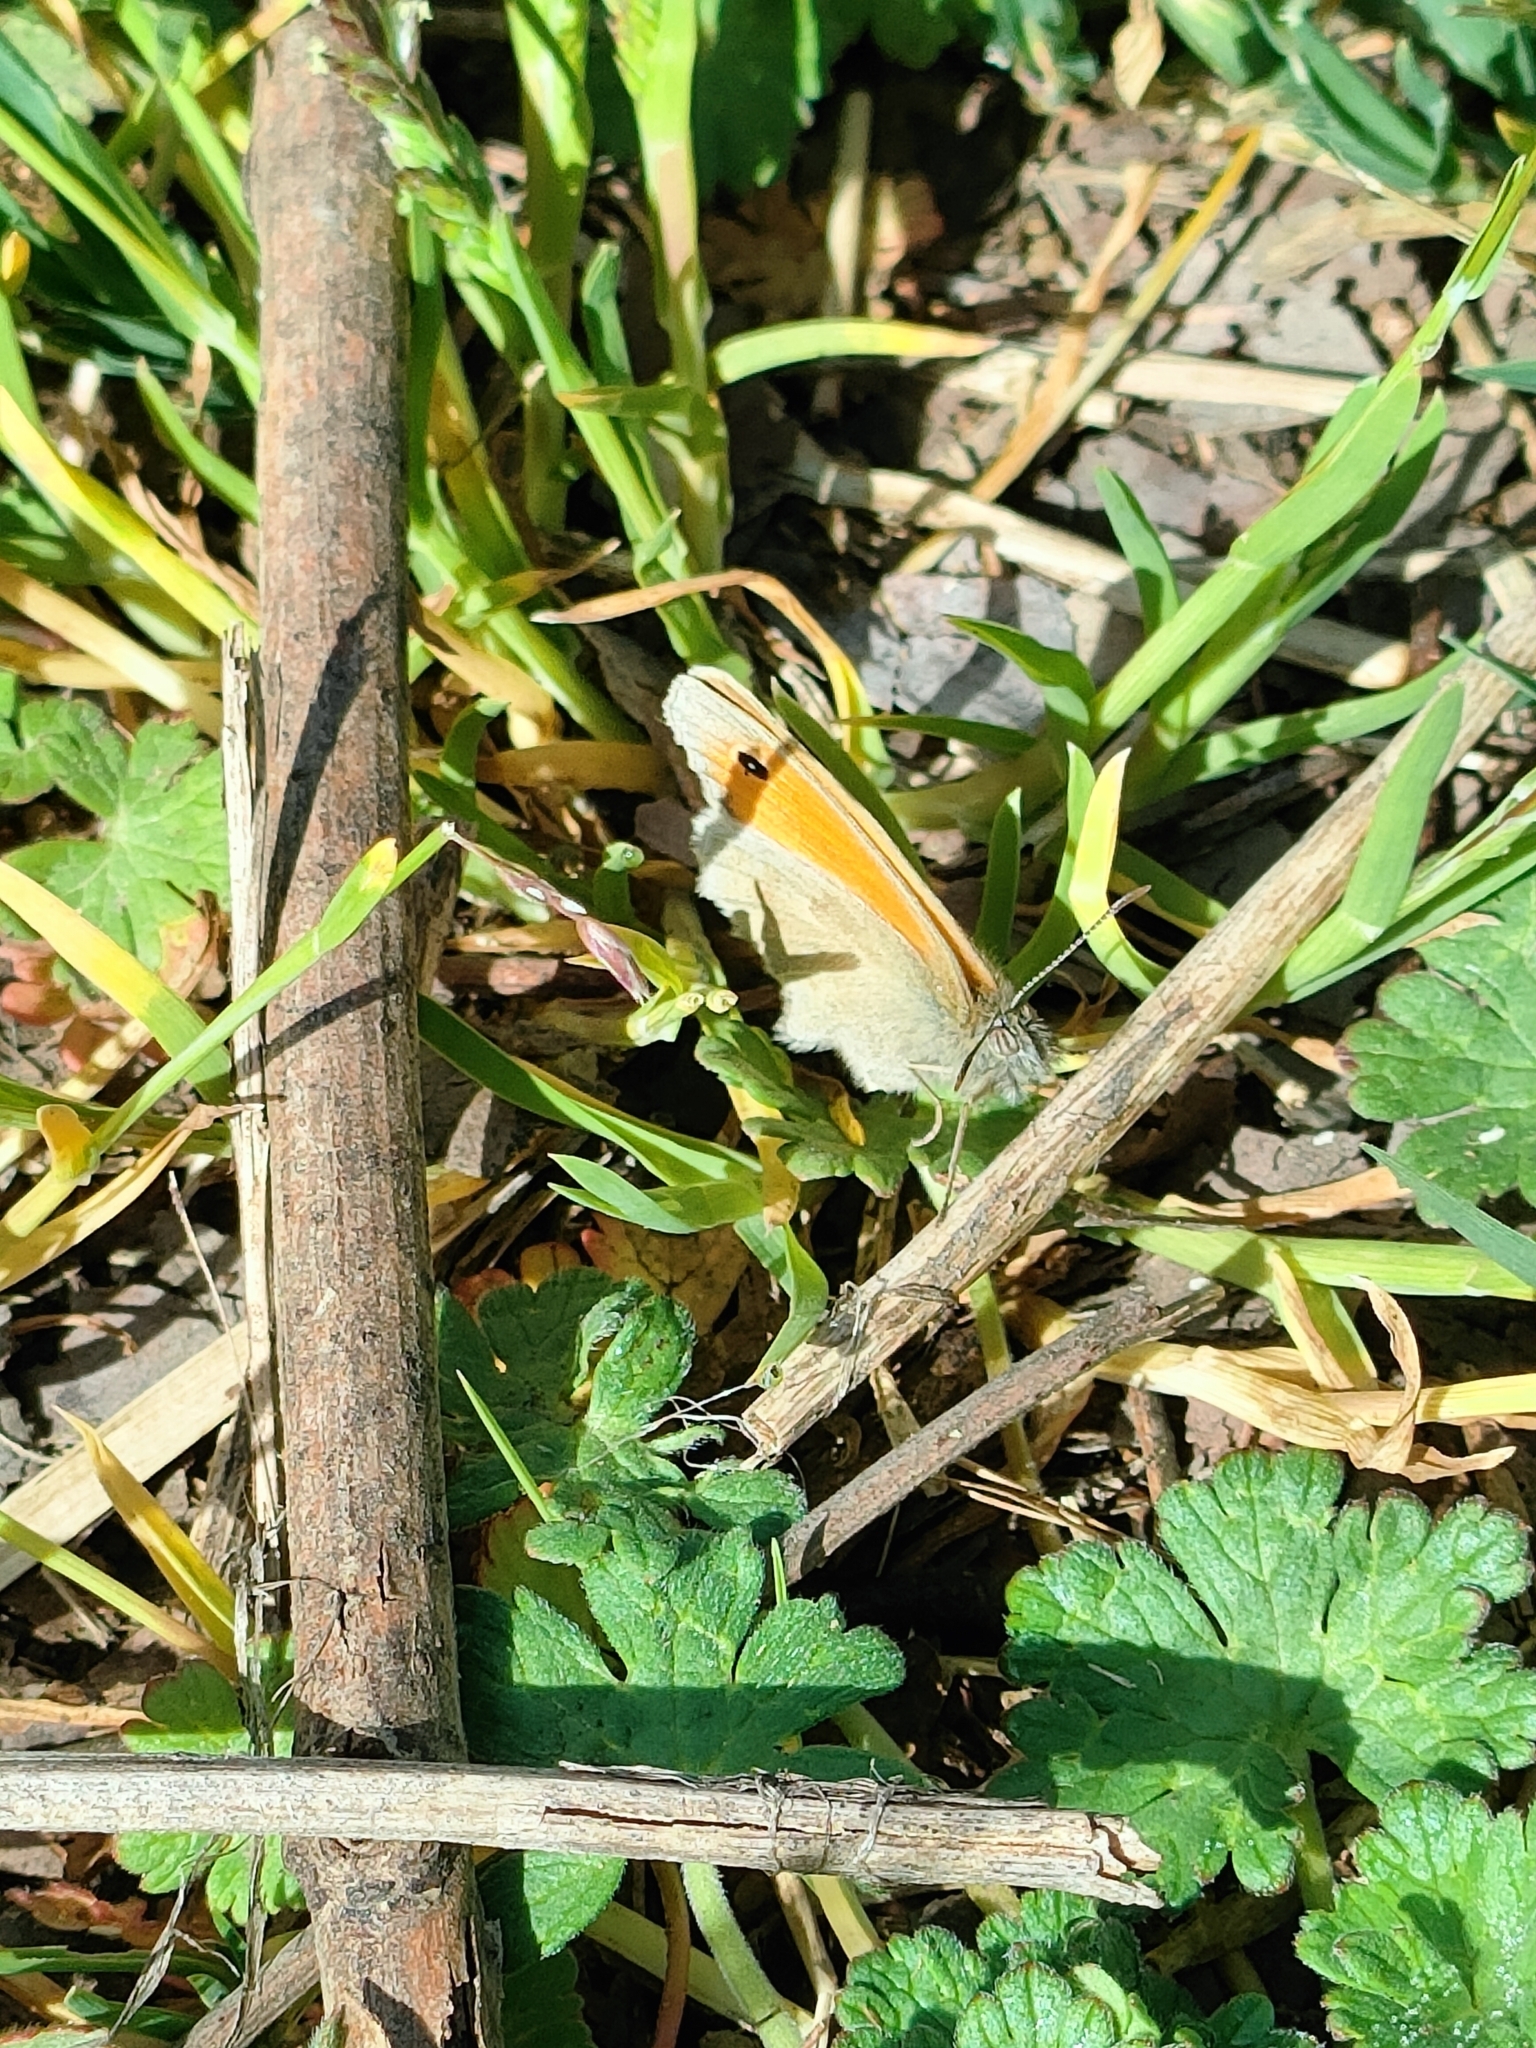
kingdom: Animalia
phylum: Arthropoda
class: Insecta
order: Lepidoptera
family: Nymphalidae
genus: Coenonympha
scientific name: Coenonympha pamphilus
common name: Small heath
